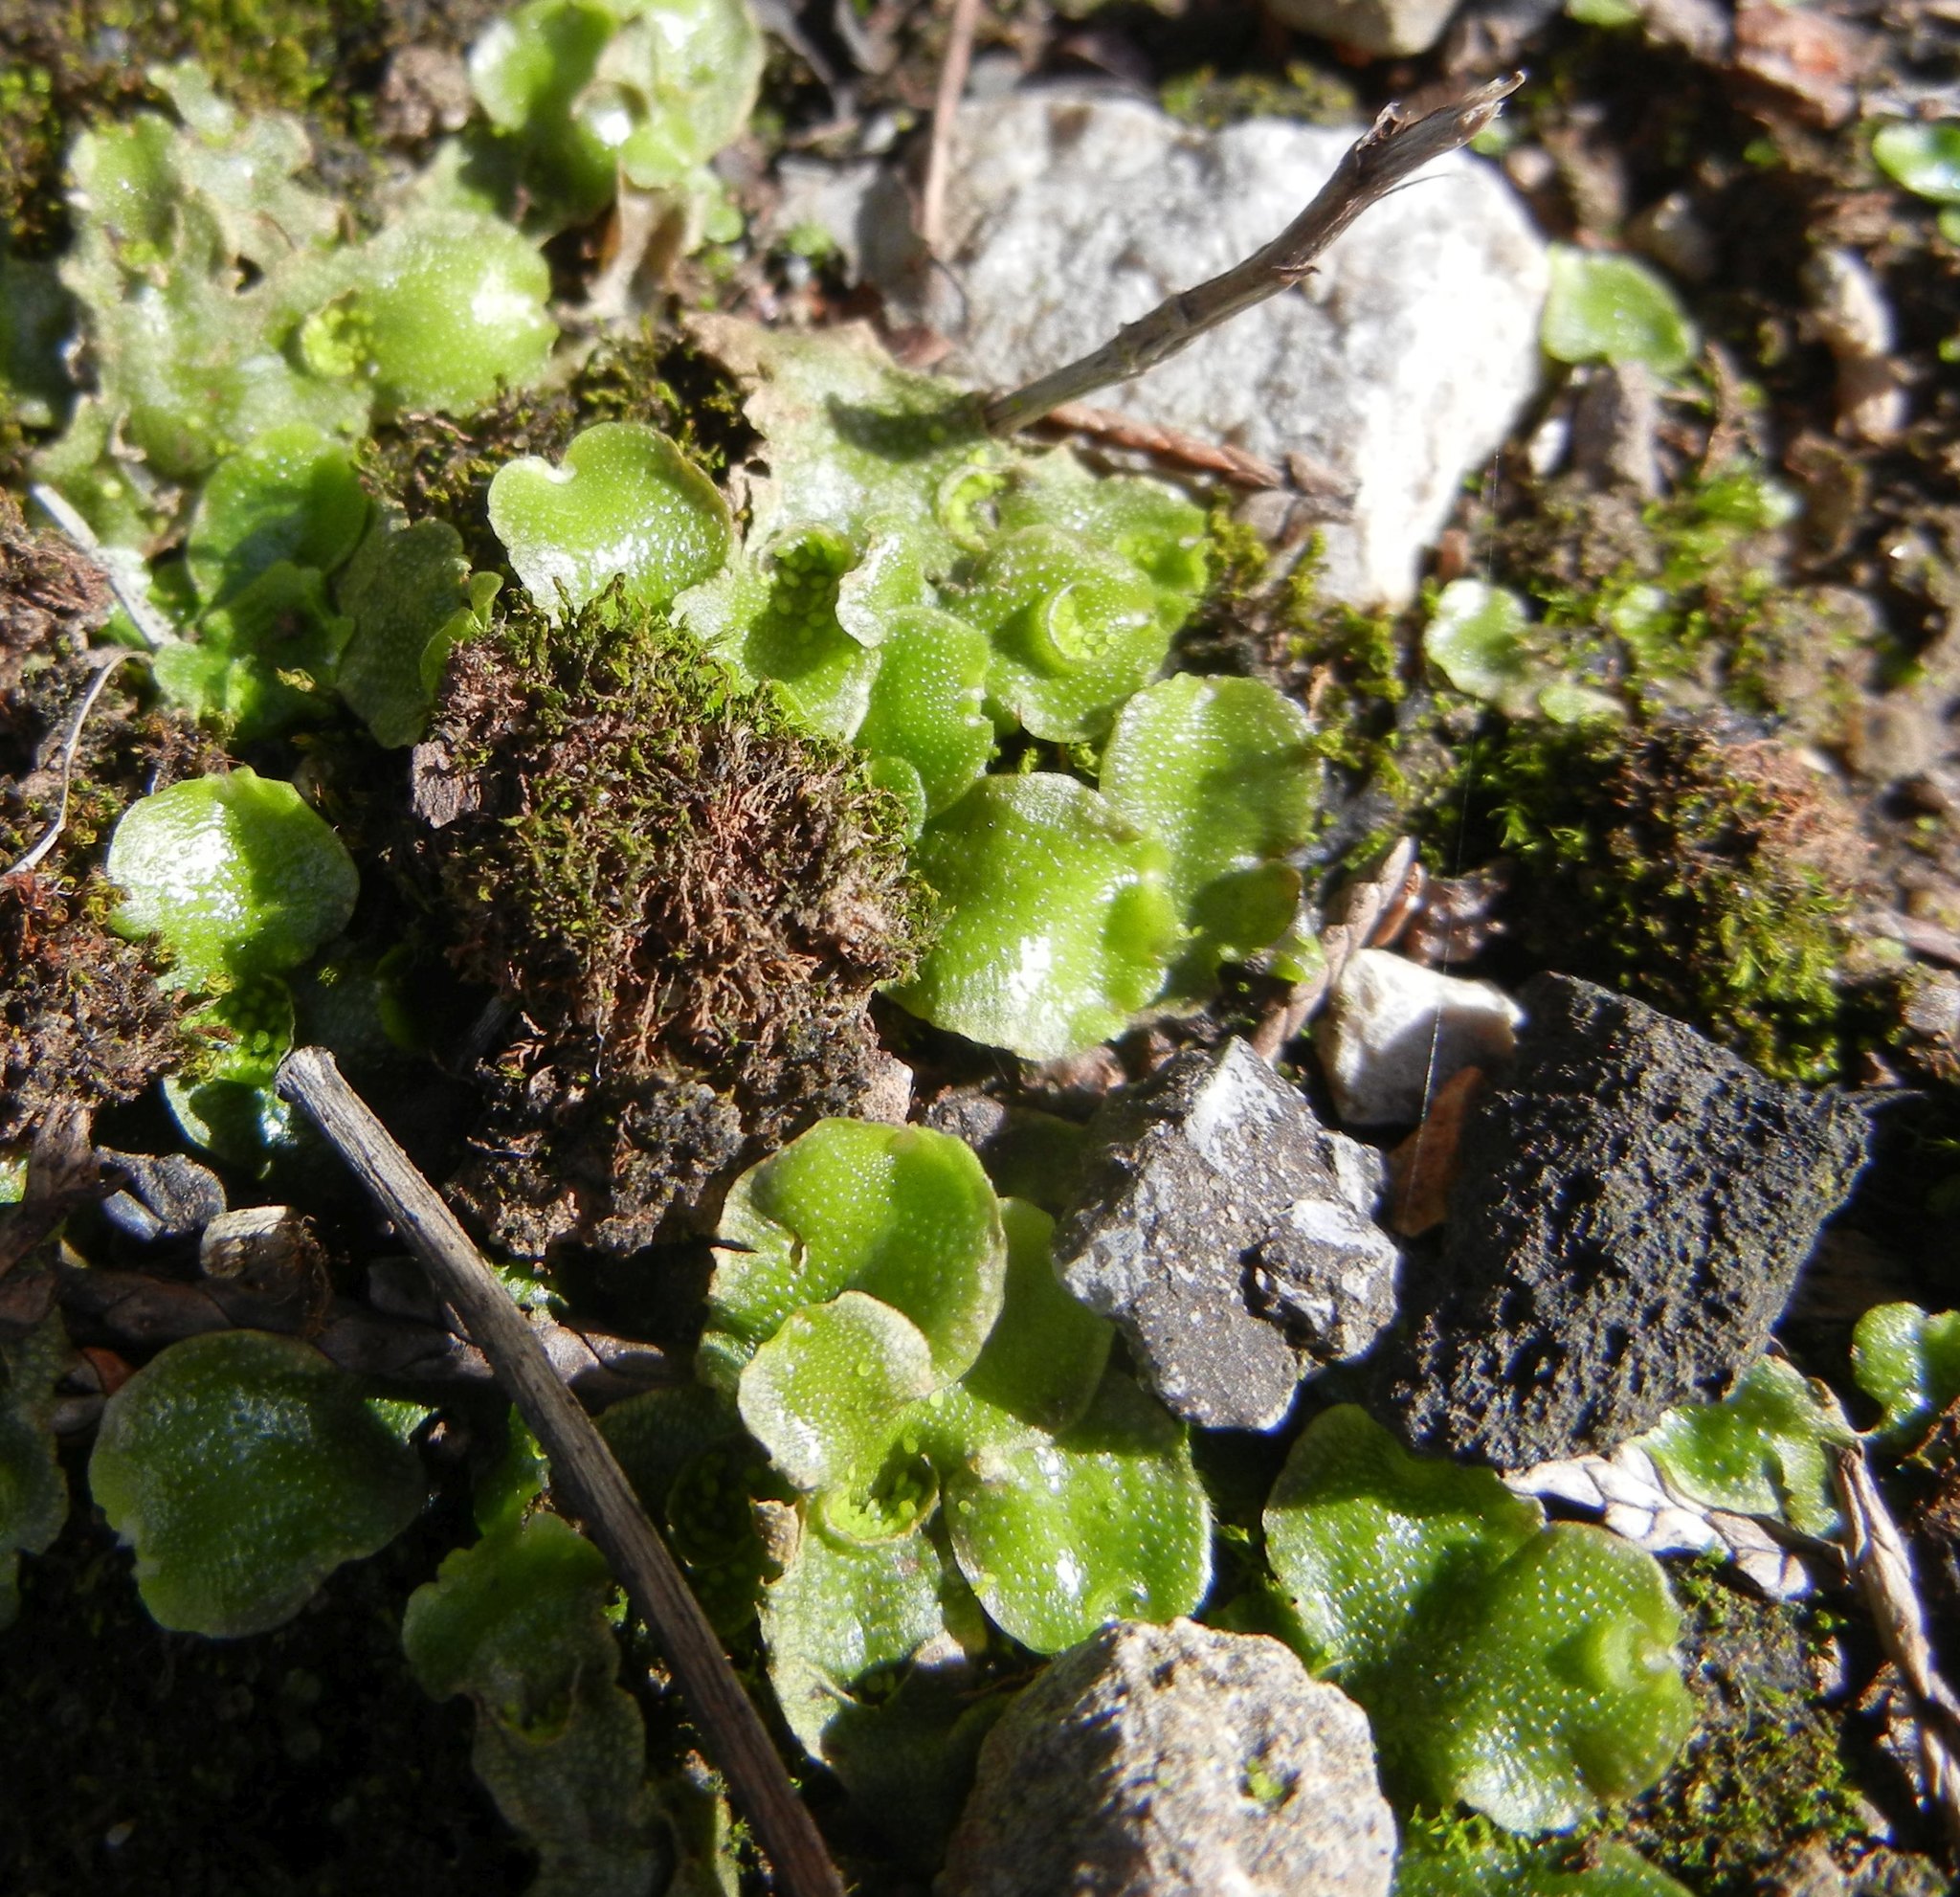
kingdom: Plantae
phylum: Marchantiophyta
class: Marchantiopsida
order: Lunulariales
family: Lunulariaceae
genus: Lunularia
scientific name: Lunularia cruciata
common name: Crescent-cup liverwort
